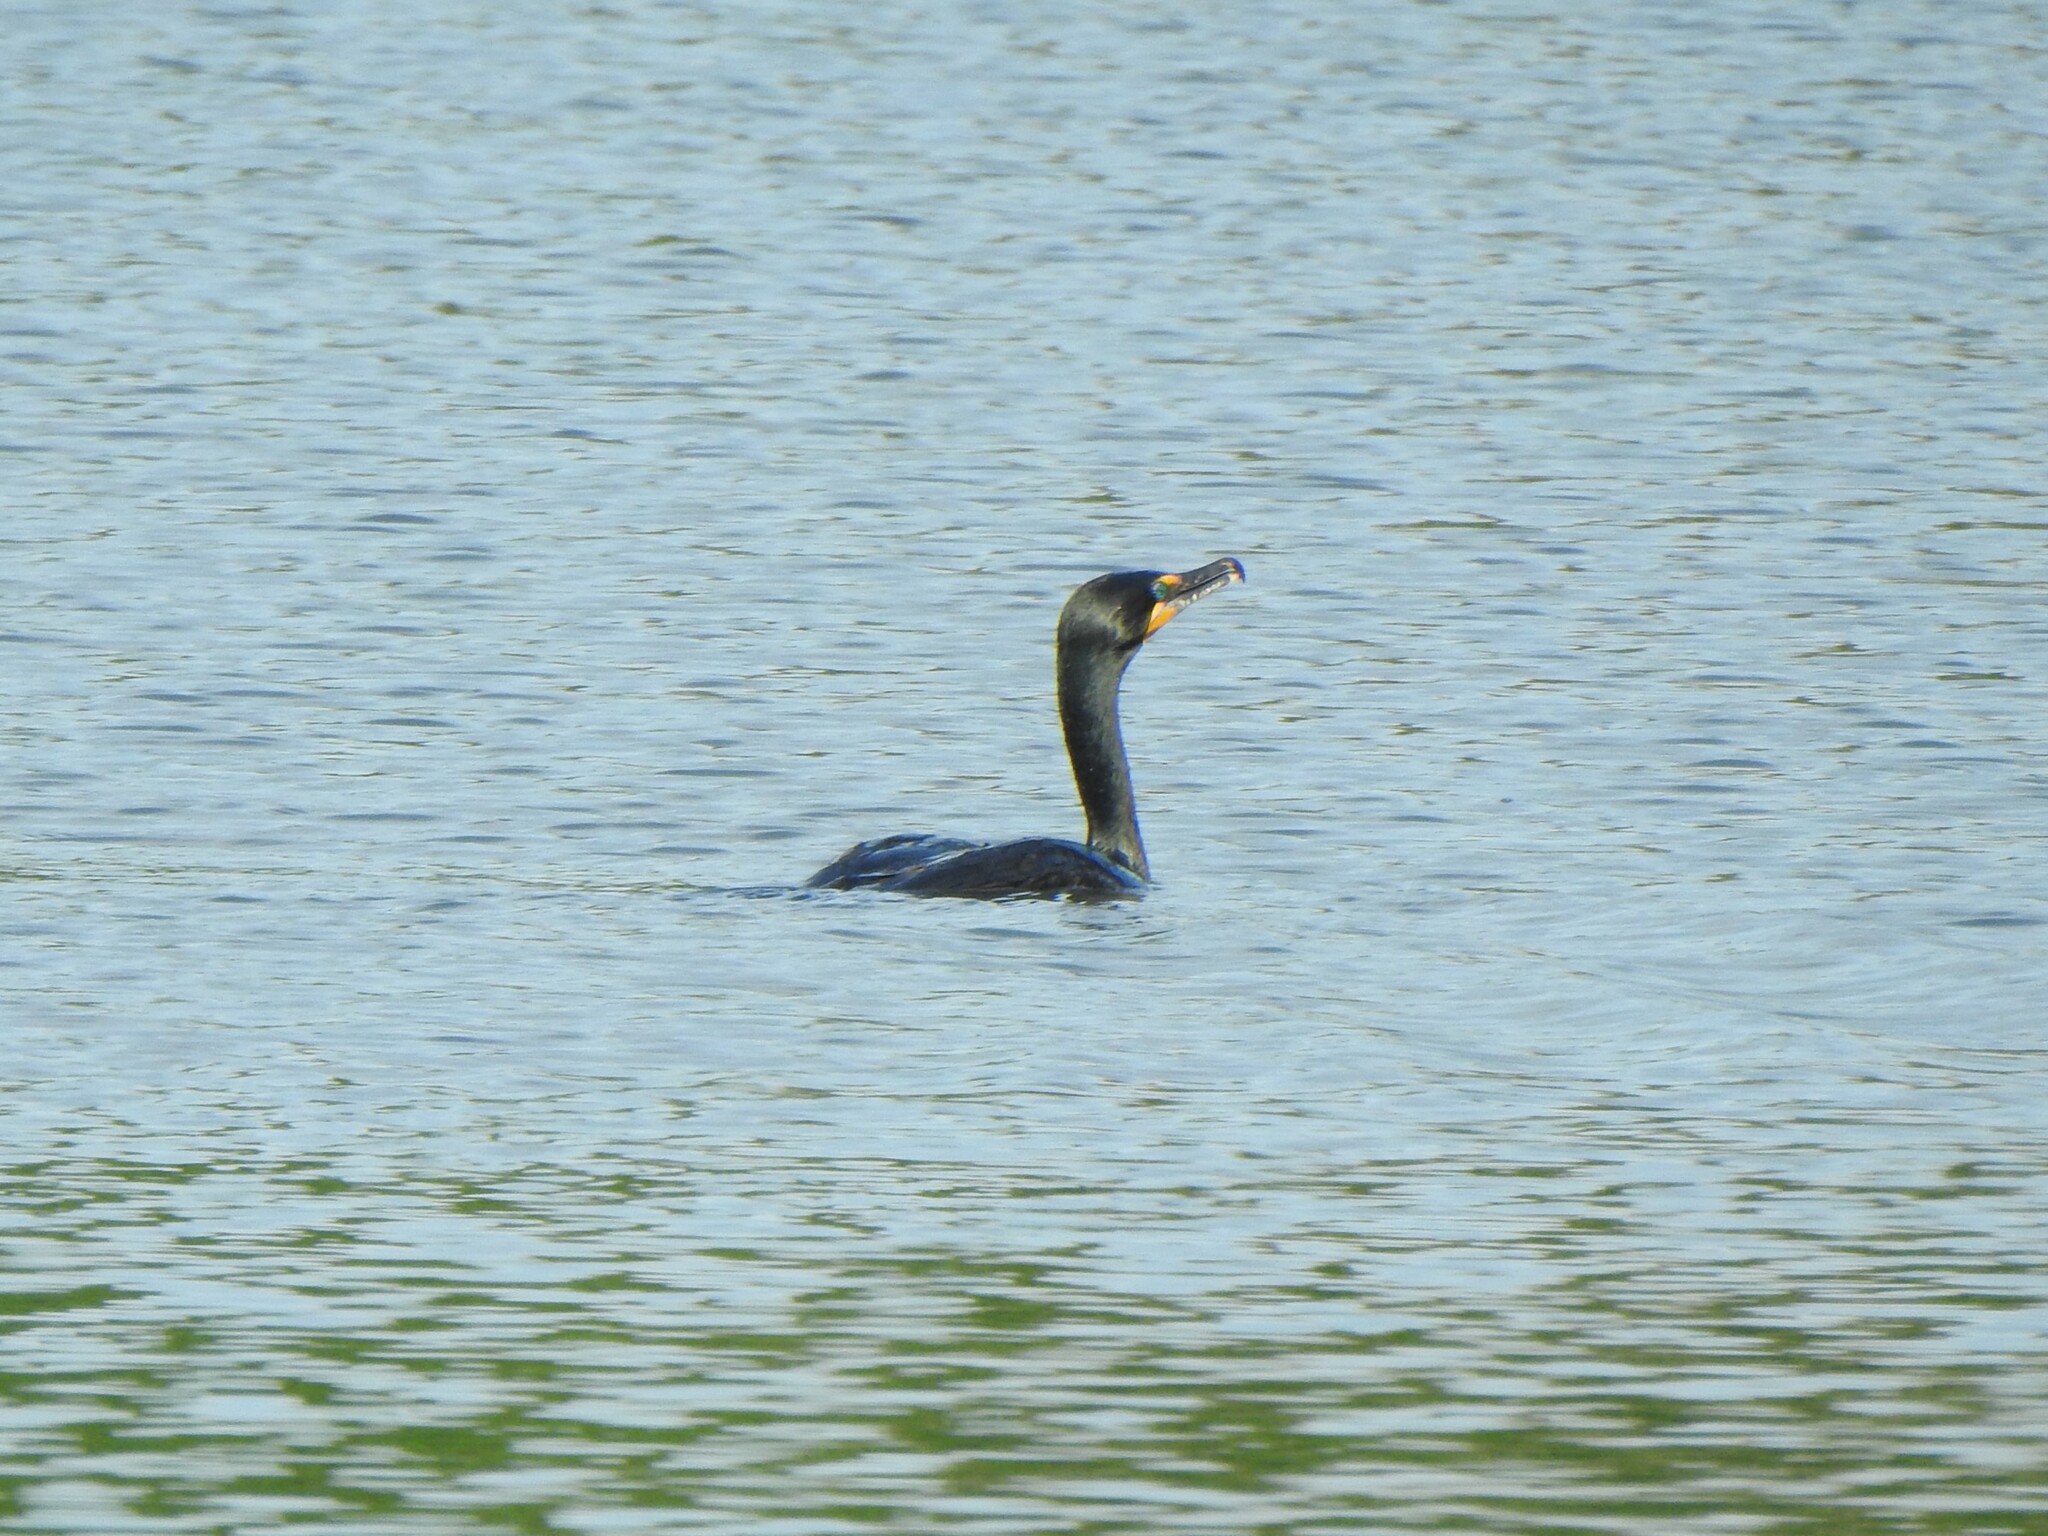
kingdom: Animalia
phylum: Chordata
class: Aves
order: Suliformes
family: Phalacrocoracidae
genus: Phalacrocorax
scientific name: Phalacrocorax auritus
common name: Double-crested cormorant
